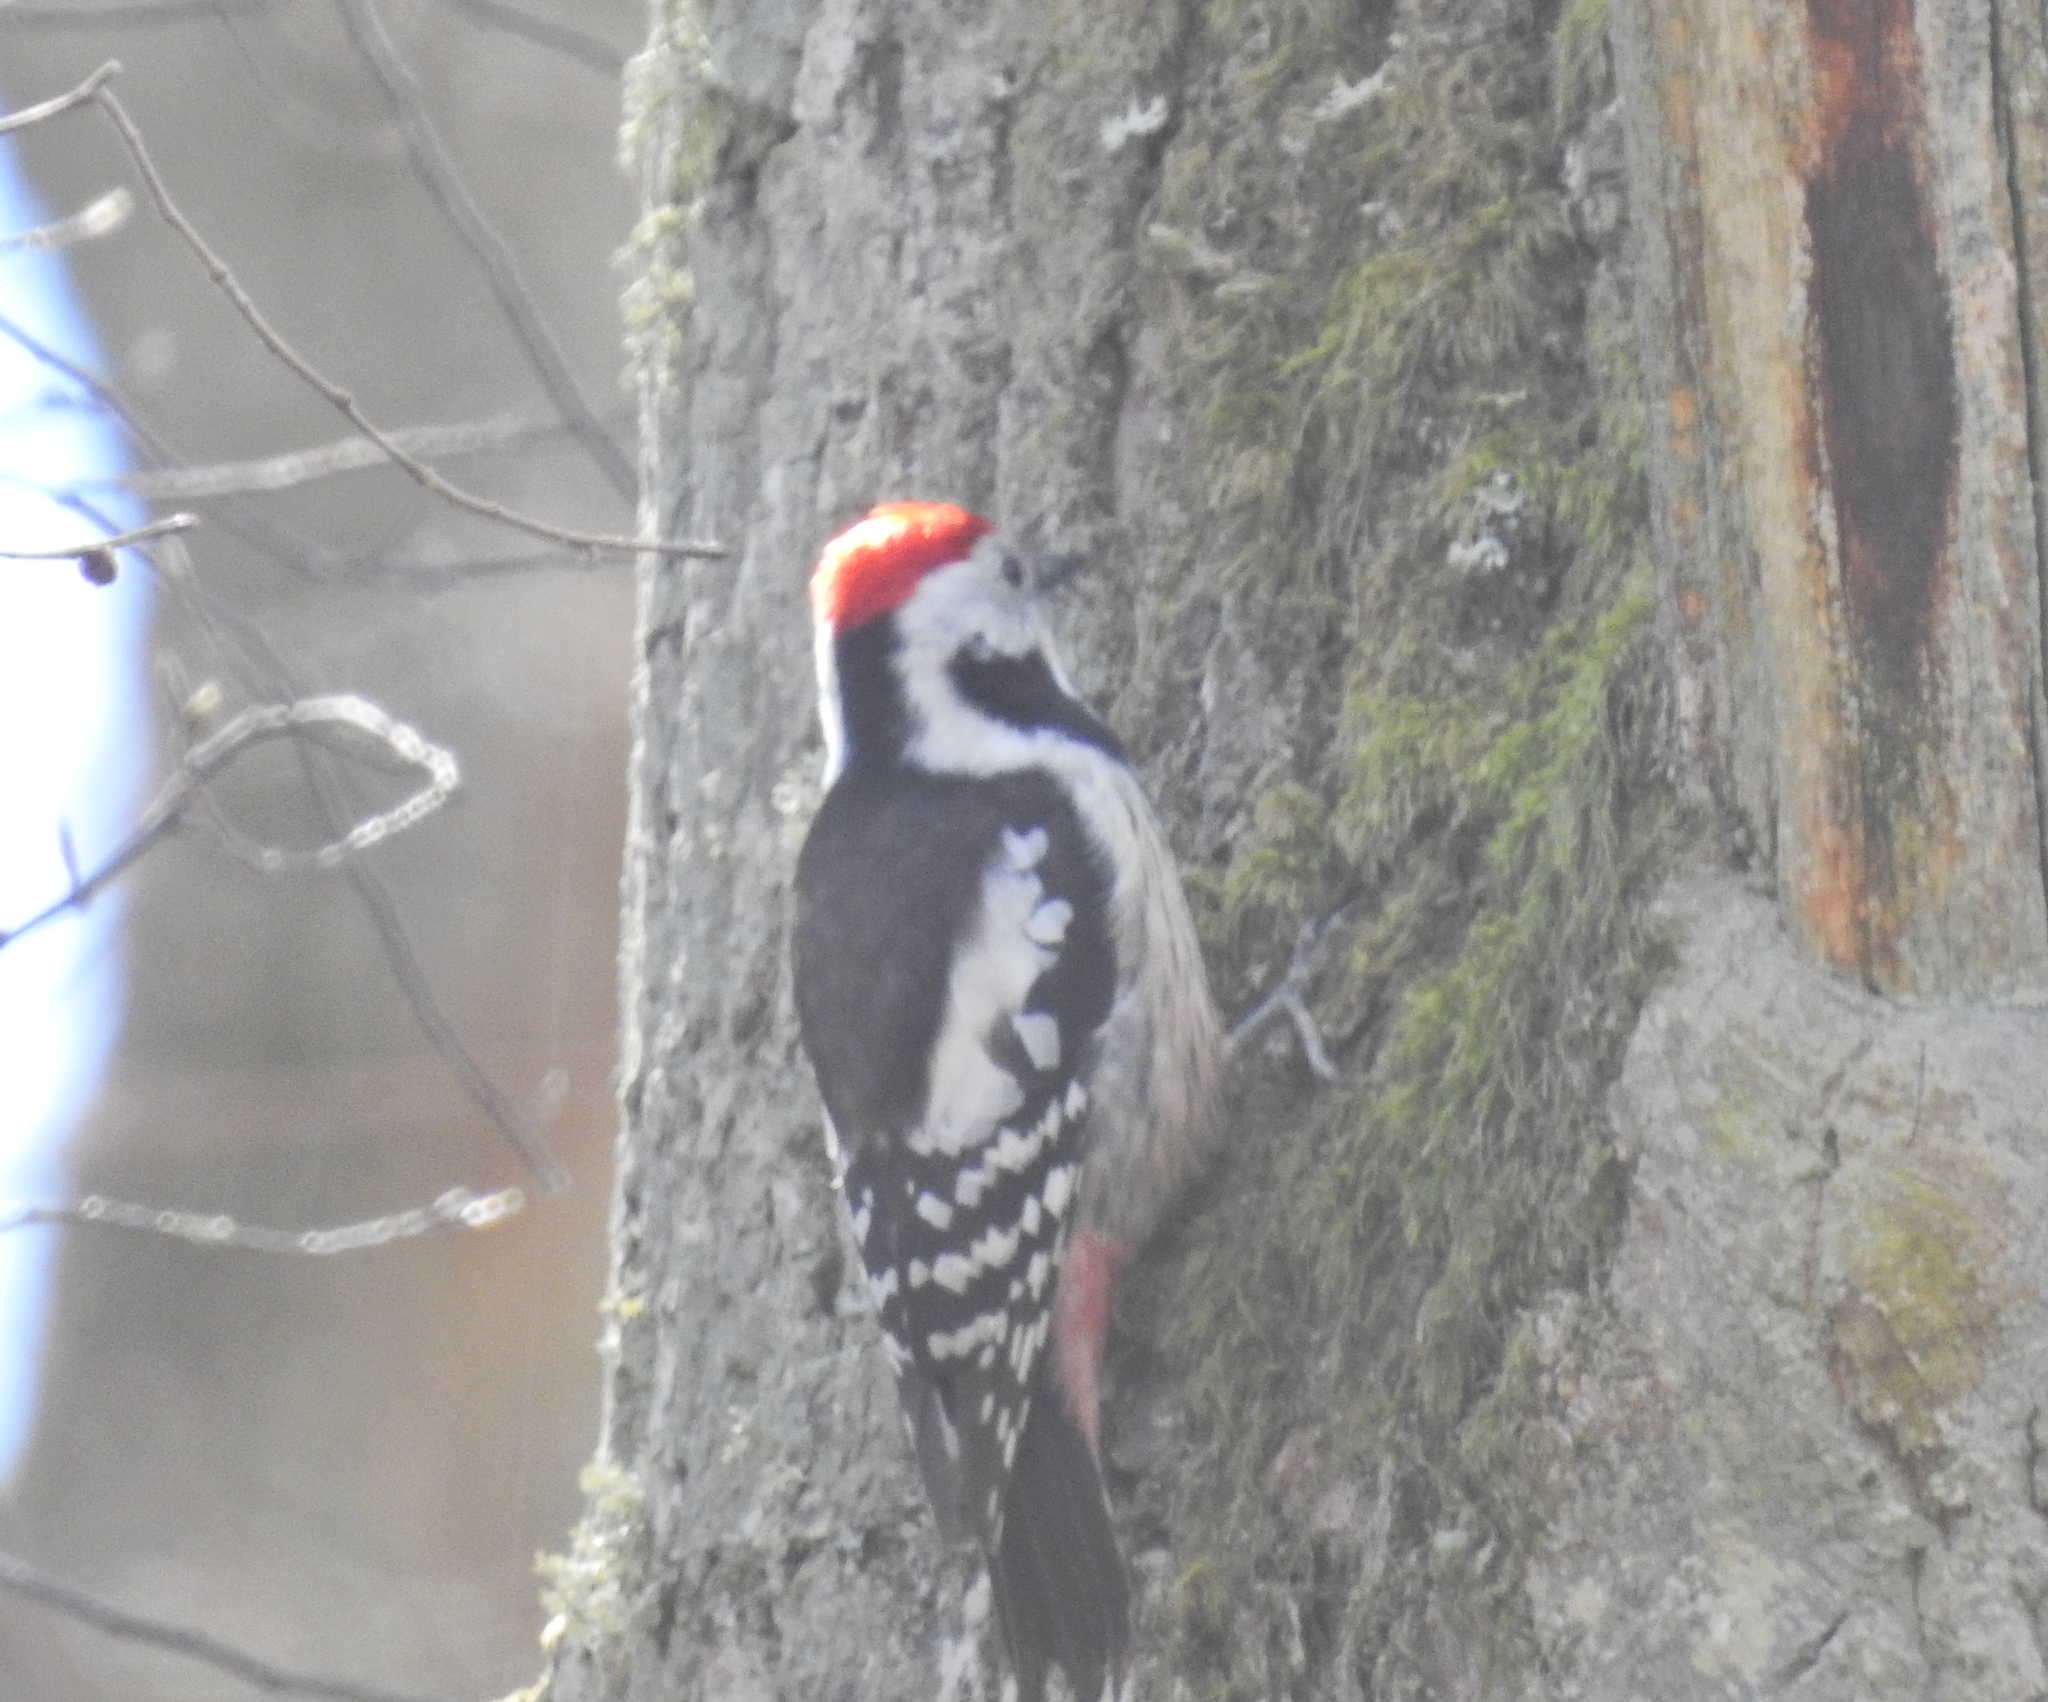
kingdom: Animalia
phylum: Chordata
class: Aves
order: Piciformes
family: Picidae
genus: Dendrocoptes
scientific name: Dendrocoptes medius
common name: Middle spotted woodpecker
